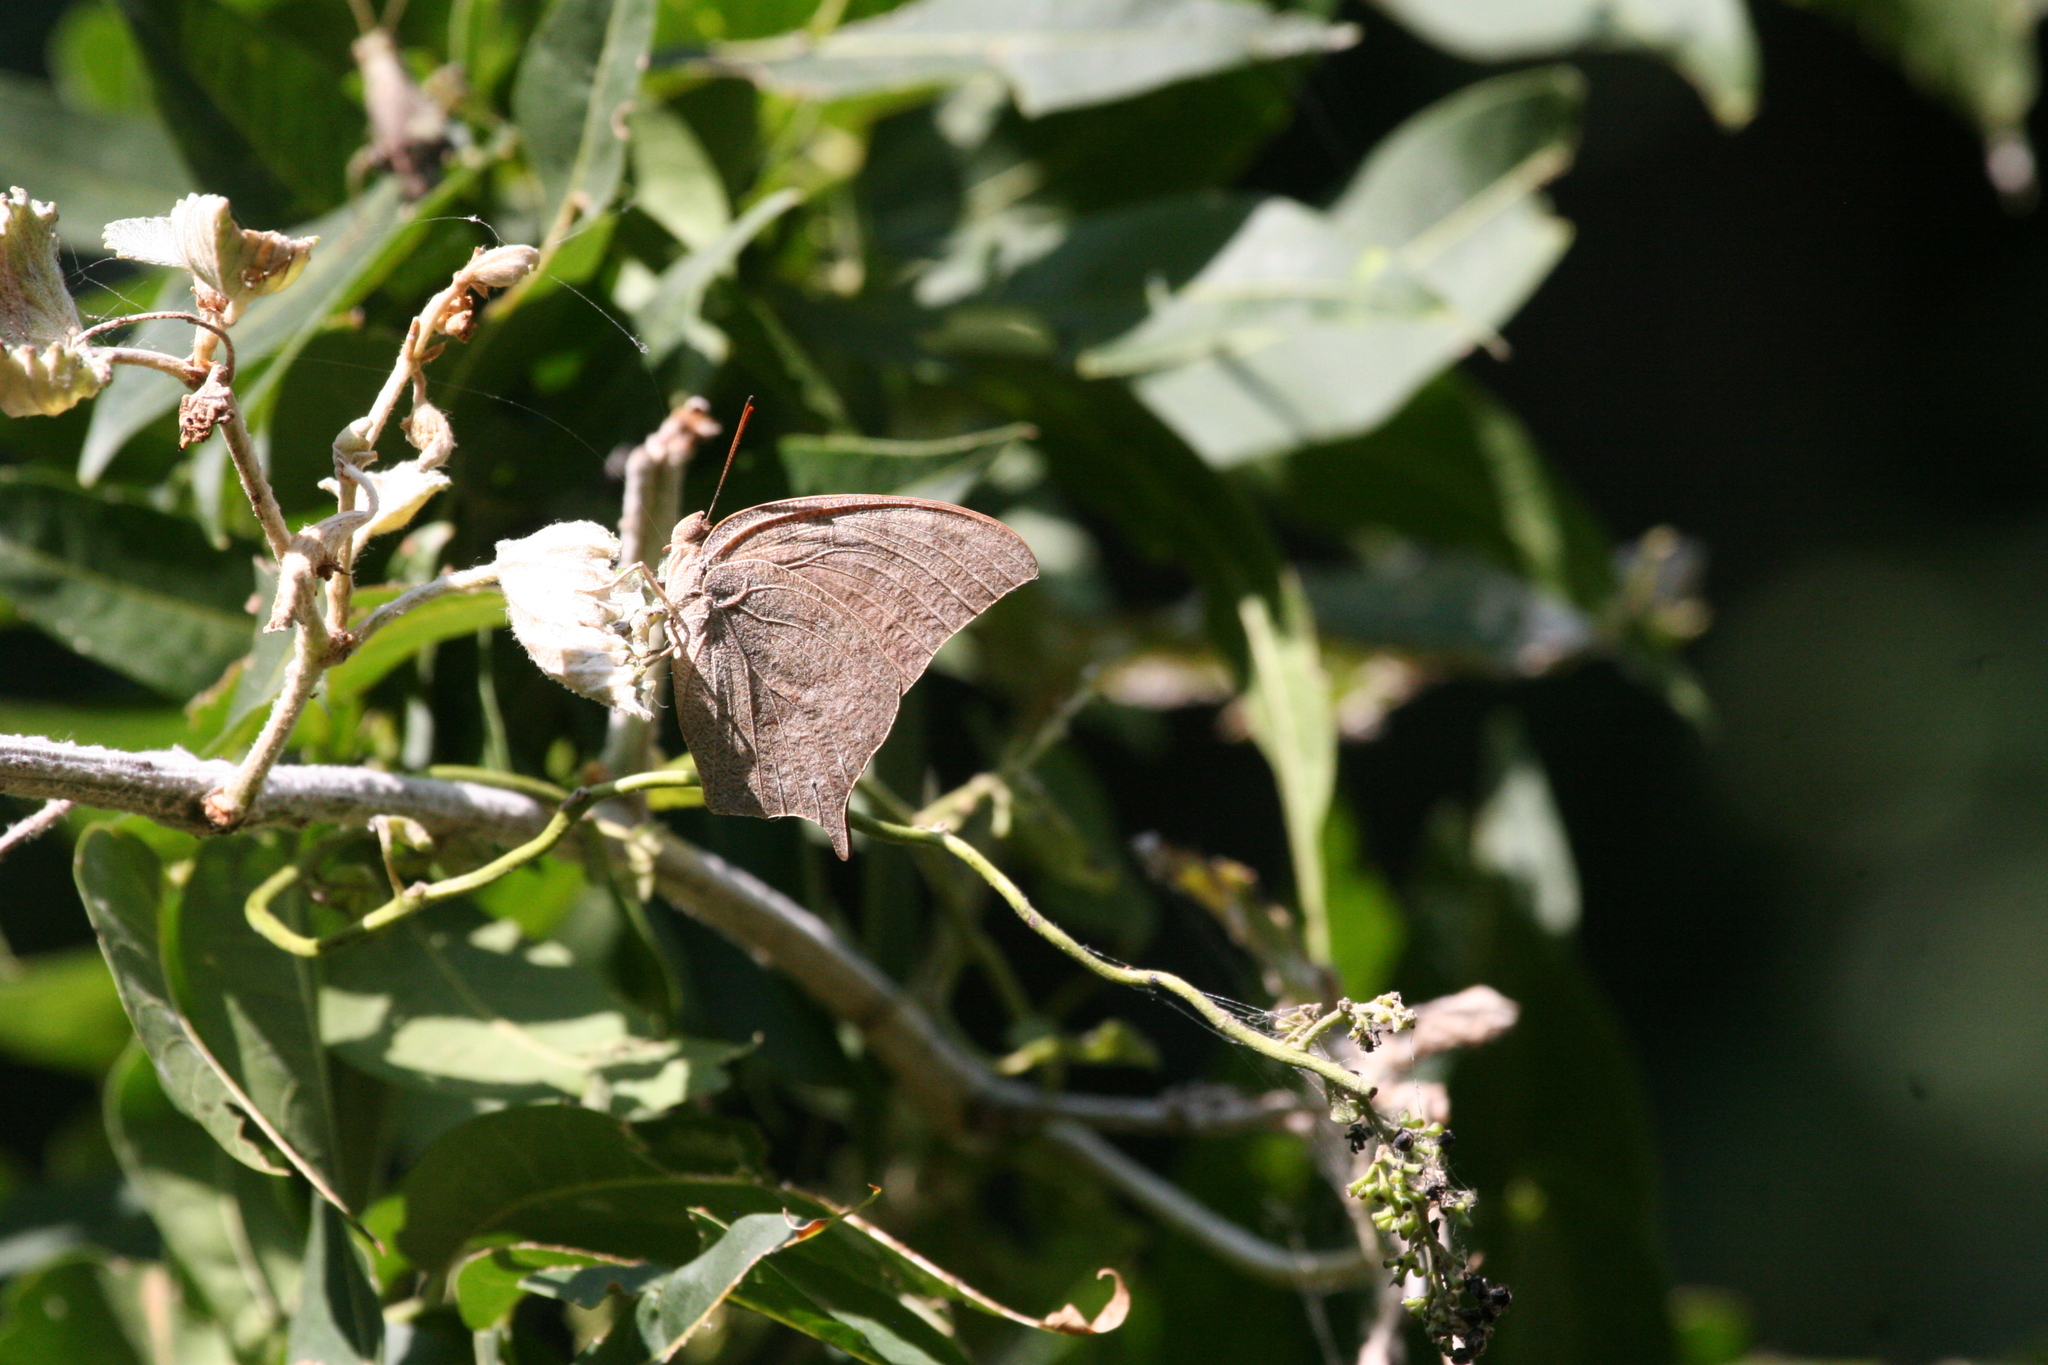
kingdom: Animalia
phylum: Arthropoda
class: Insecta
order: Lepidoptera
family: Nymphalidae
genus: Anaea
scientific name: Anaea andria
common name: Goatweed leafwing
